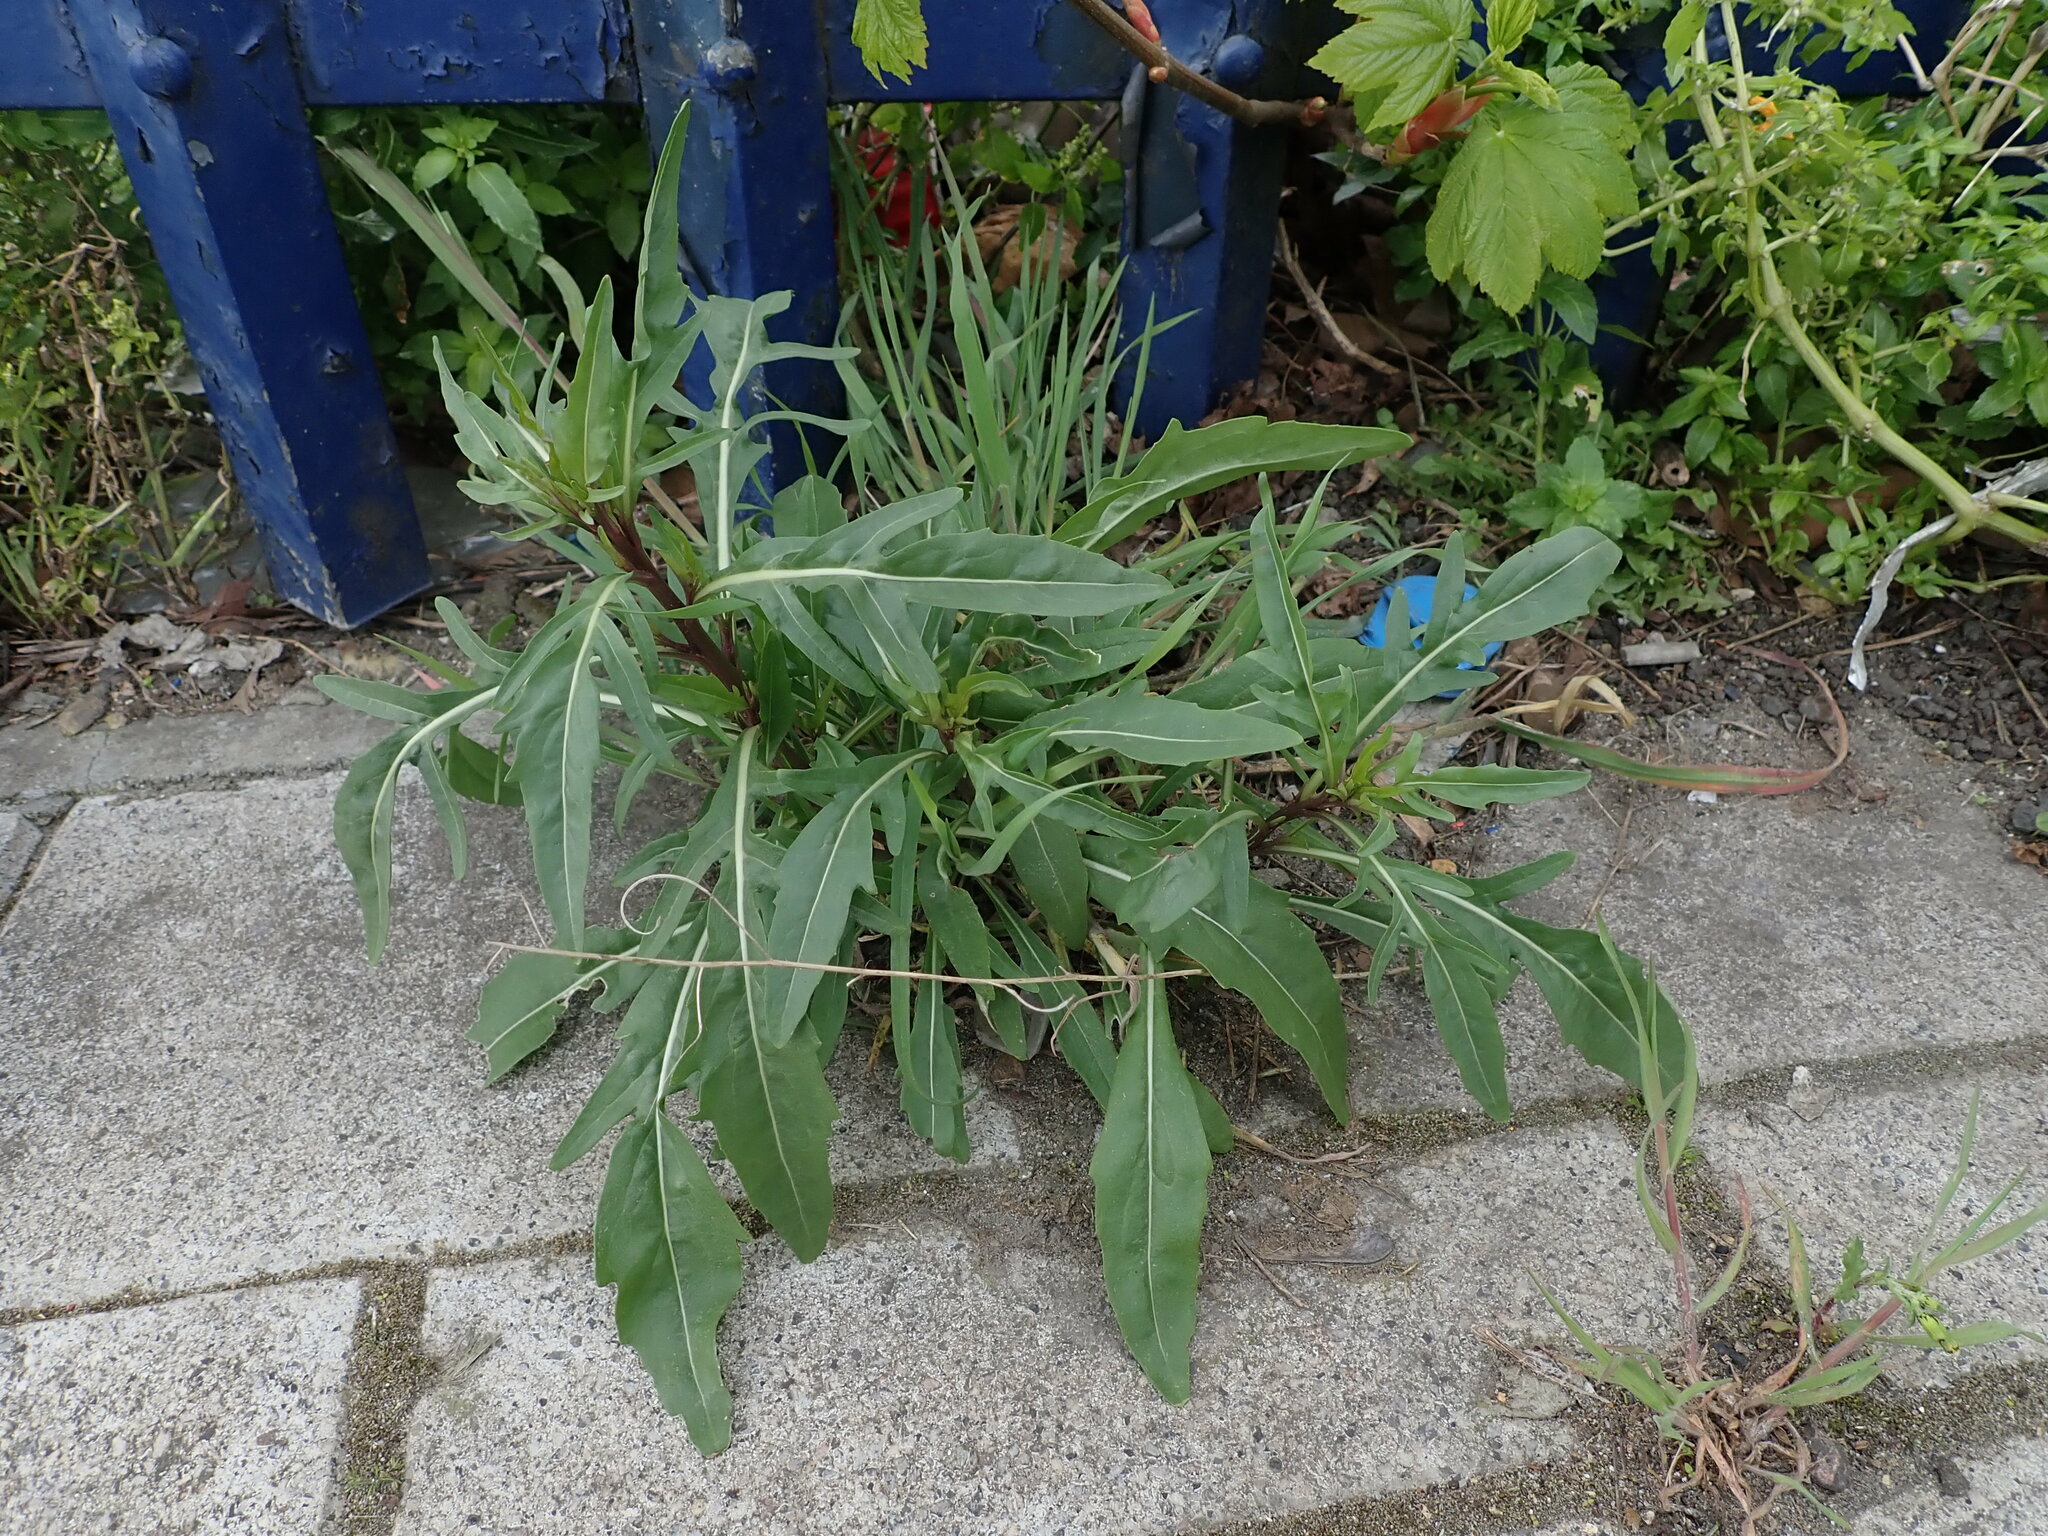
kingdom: Plantae
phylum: Tracheophyta
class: Magnoliopsida
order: Brassicales
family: Brassicaceae
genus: Diplotaxis
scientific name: Diplotaxis tenuifolia
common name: Perennial wall-rocket
